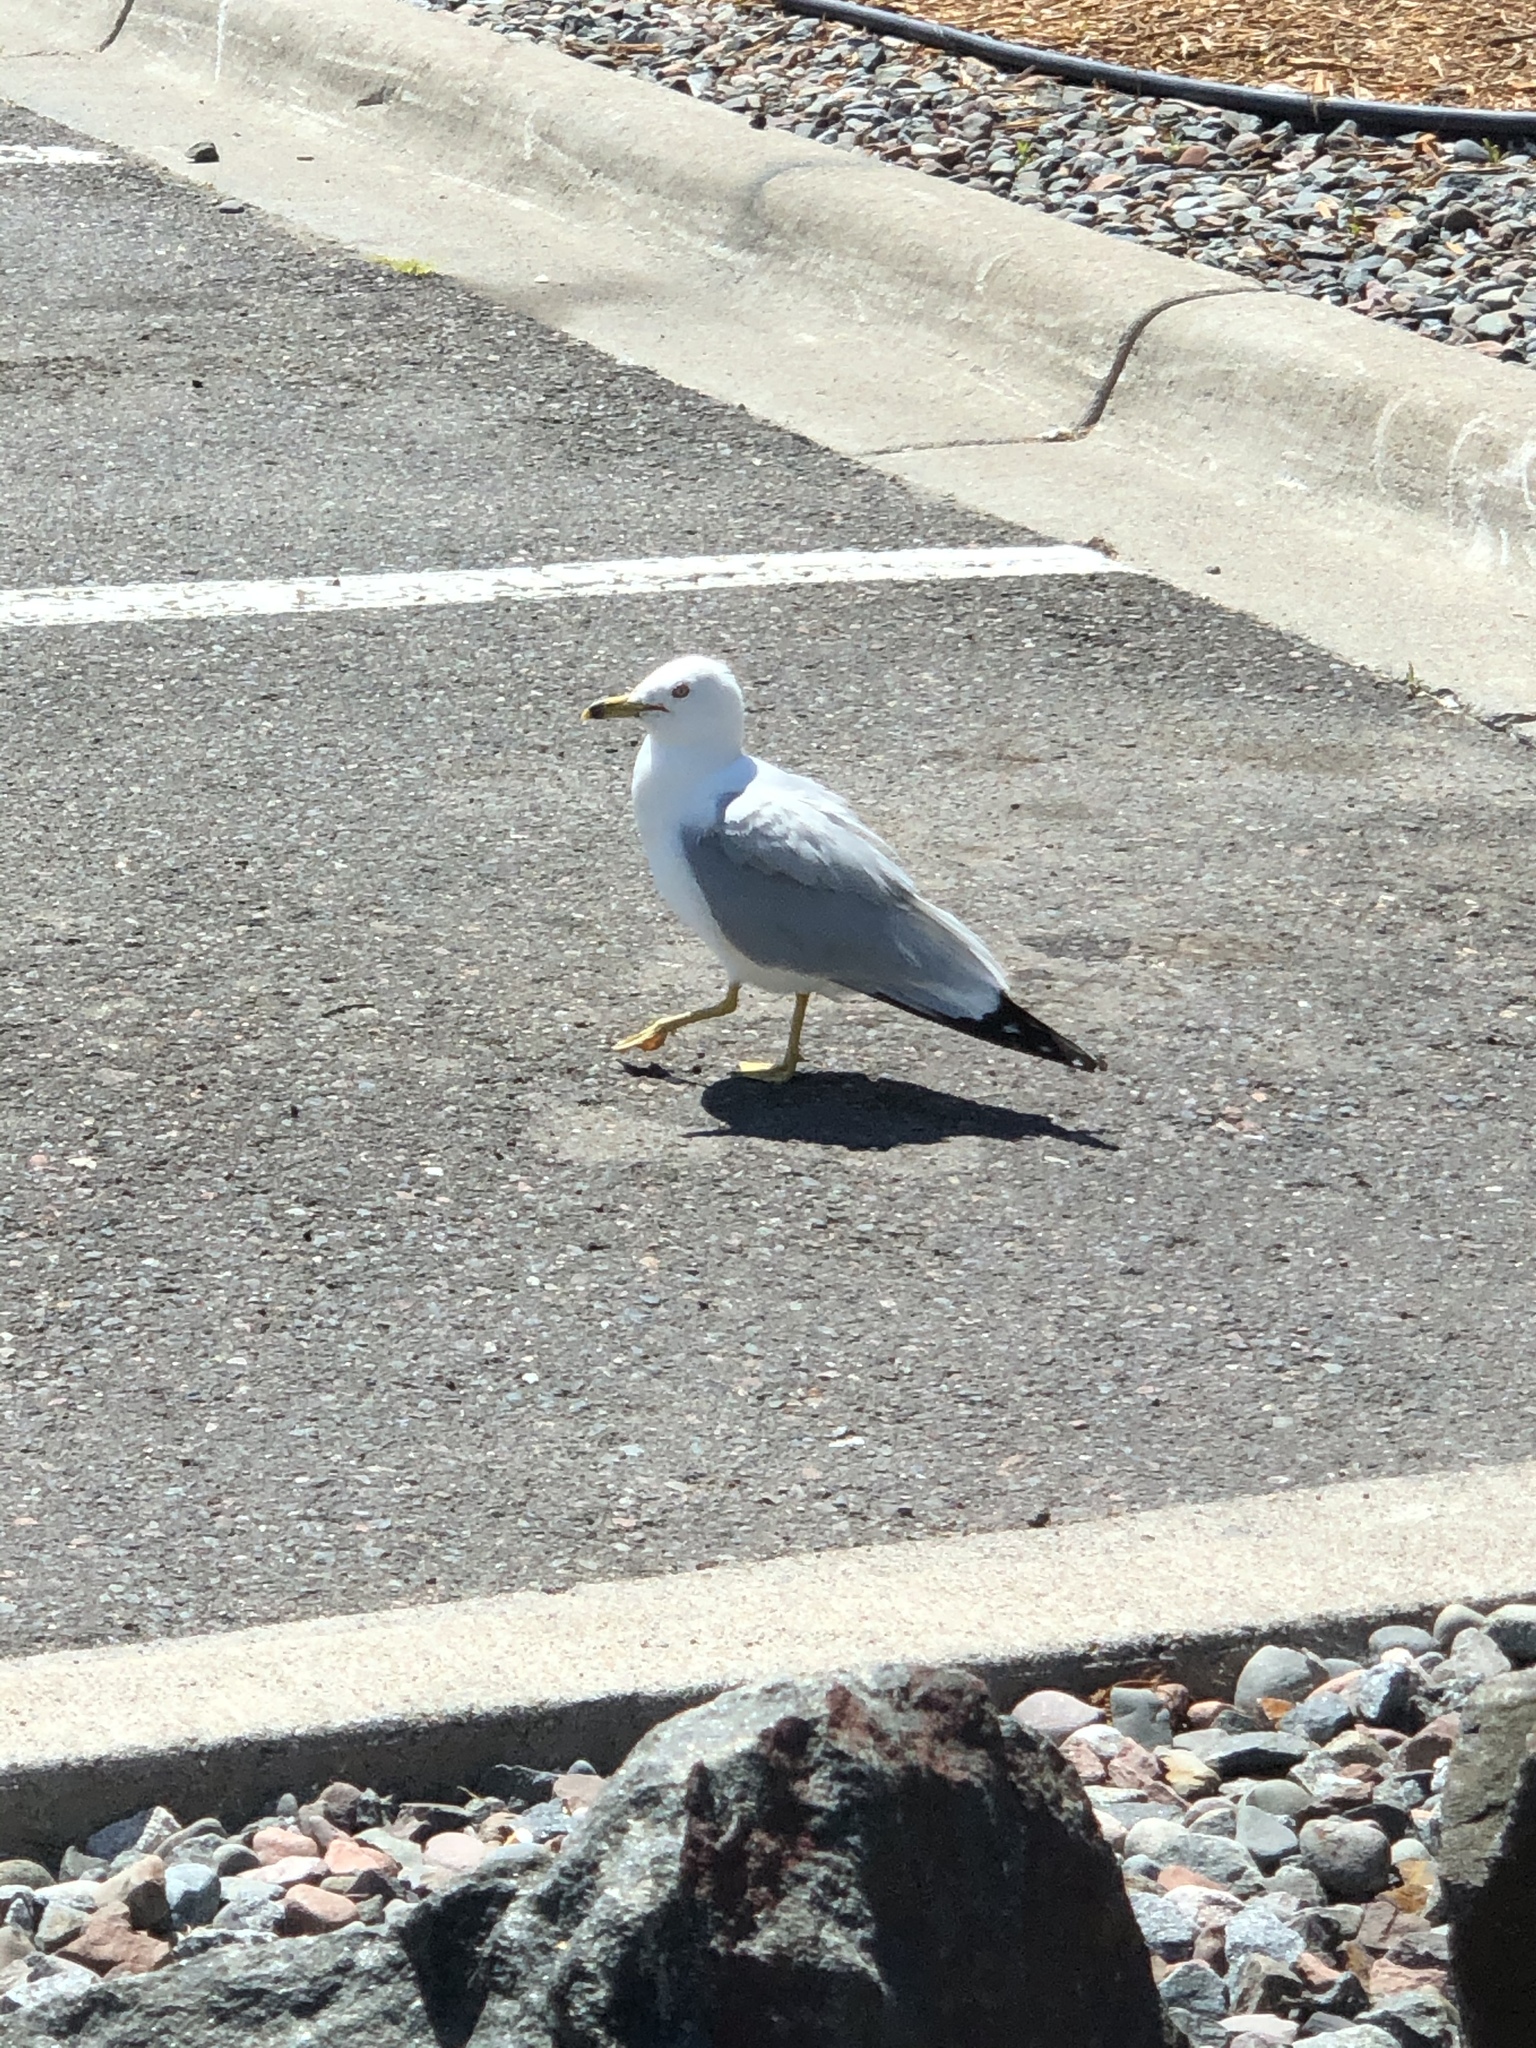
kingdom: Animalia
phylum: Chordata
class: Aves
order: Charadriiformes
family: Laridae
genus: Larus
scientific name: Larus delawarensis
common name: Ring-billed gull
